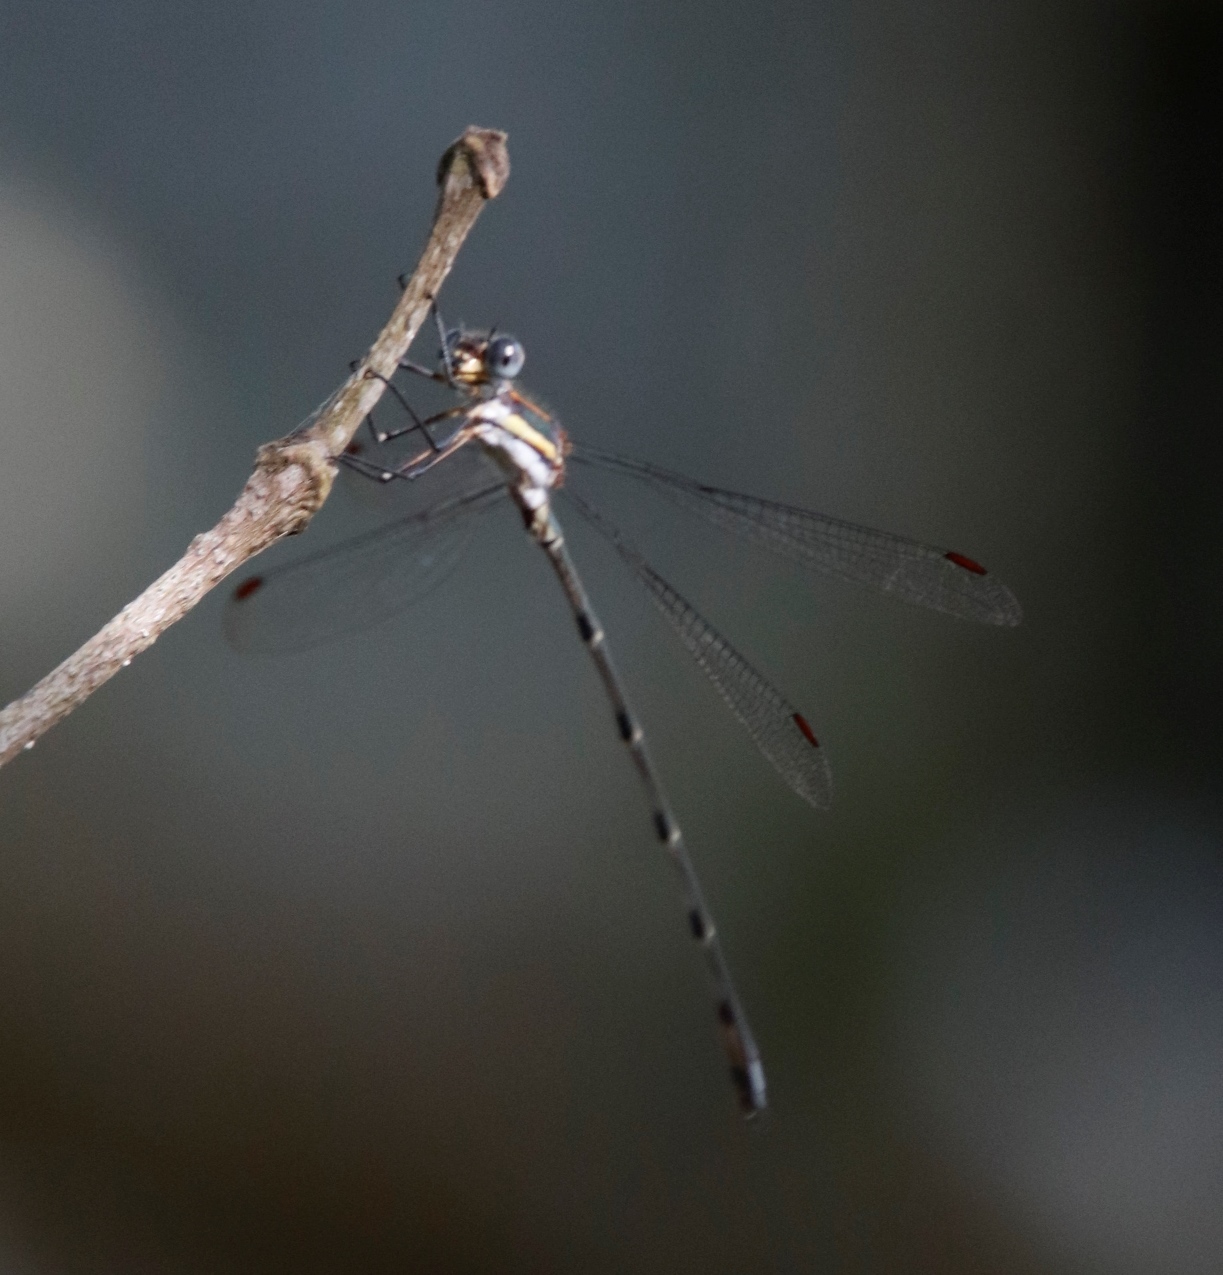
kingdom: Animalia
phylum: Arthropoda
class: Insecta
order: Odonata
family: Synlestidae
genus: Chlorolestes
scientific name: Chlorolestes conspicuus
